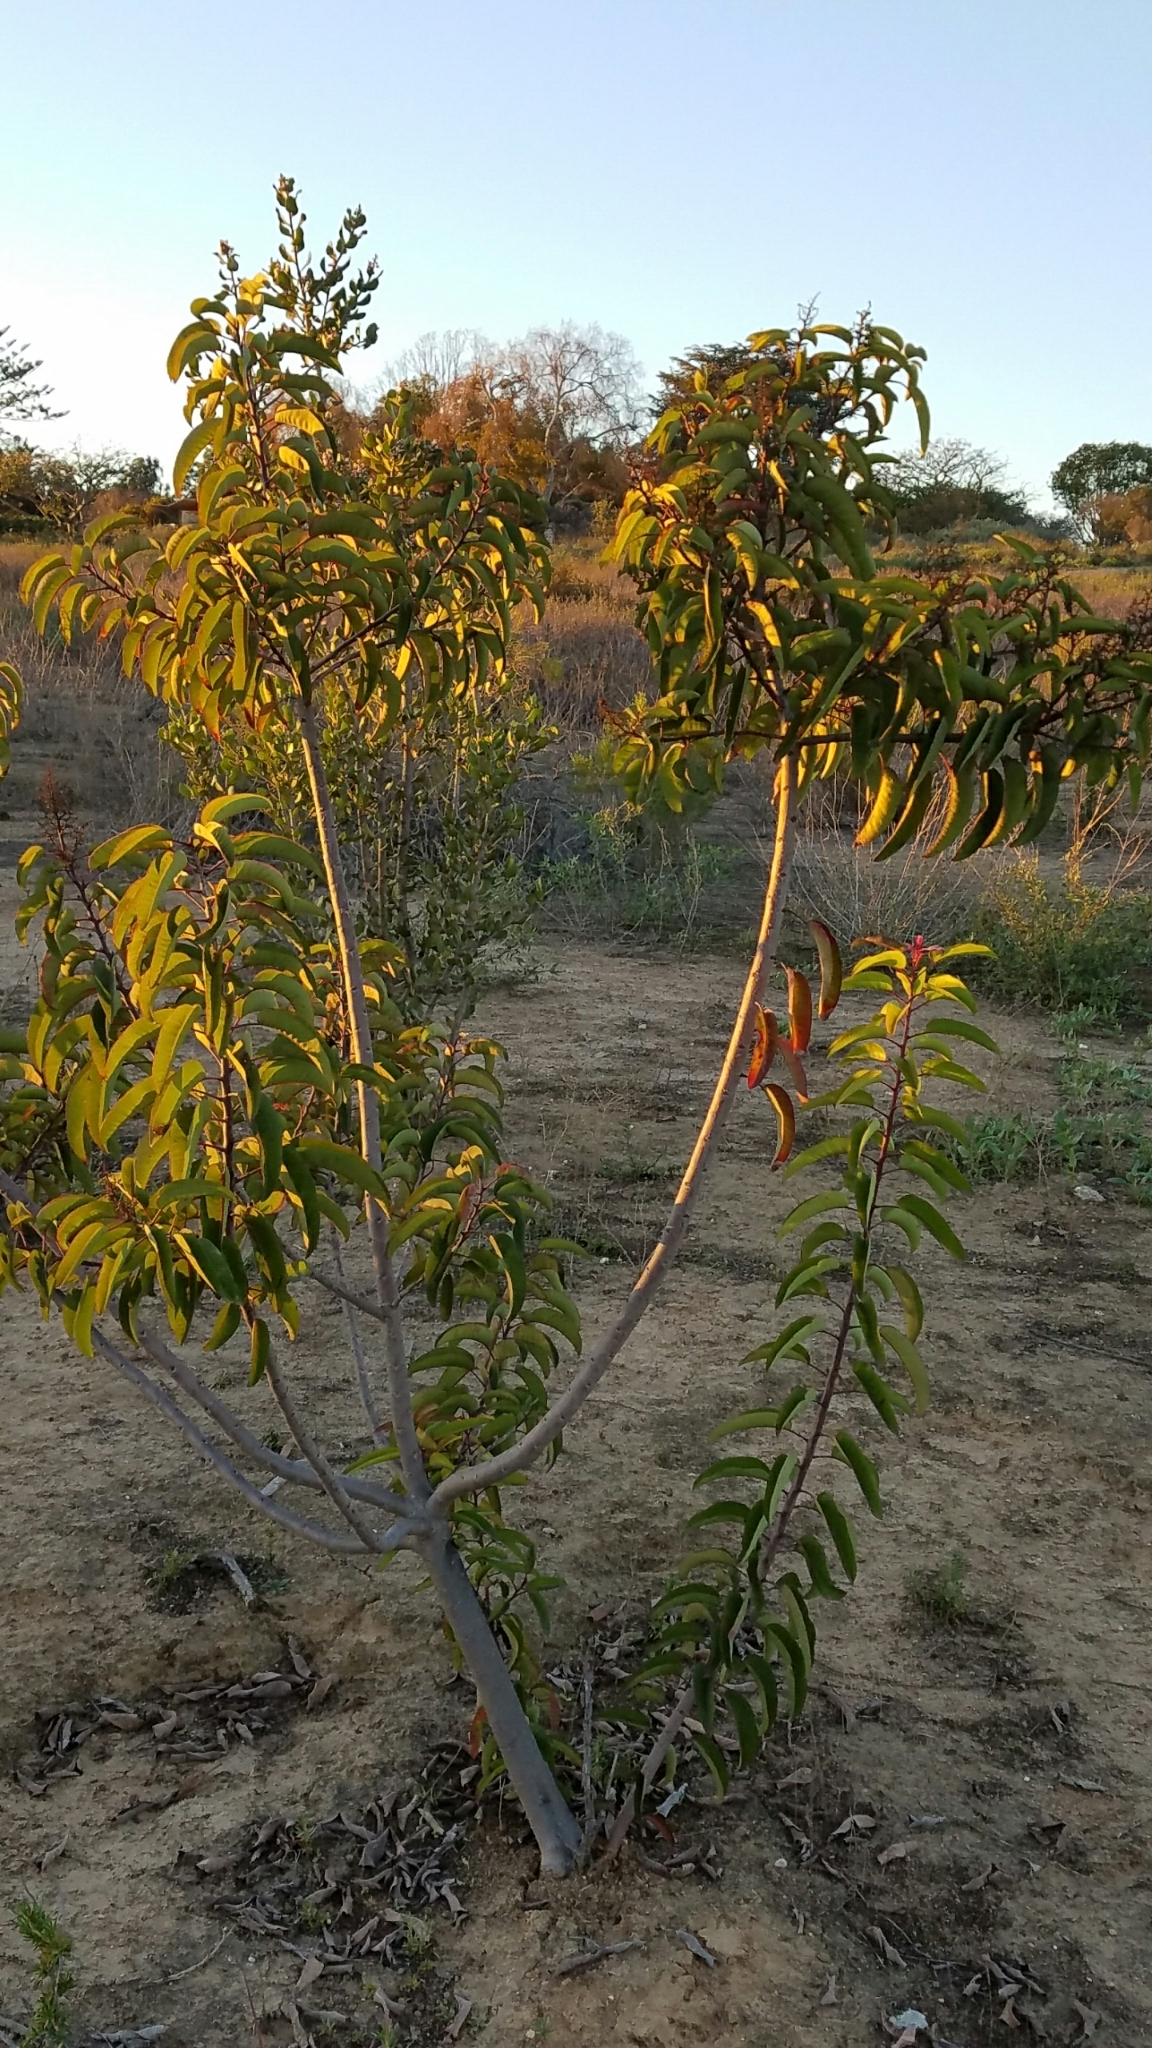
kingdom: Plantae
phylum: Tracheophyta
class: Magnoliopsida
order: Sapindales
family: Anacardiaceae
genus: Malosma
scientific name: Malosma laurina
